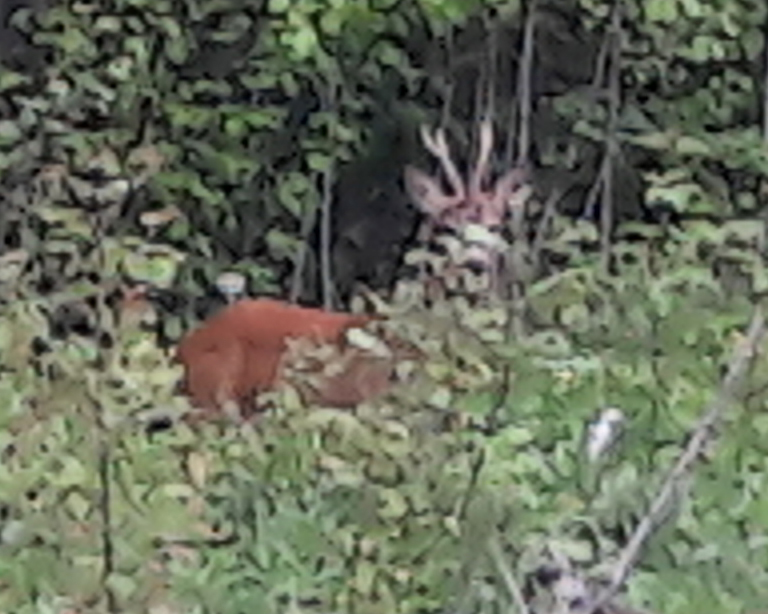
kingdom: Animalia
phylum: Chordata
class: Mammalia
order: Artiodactyla
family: Cervidae
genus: Capreolus
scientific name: Capreolus capreolus
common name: Western roe deer
